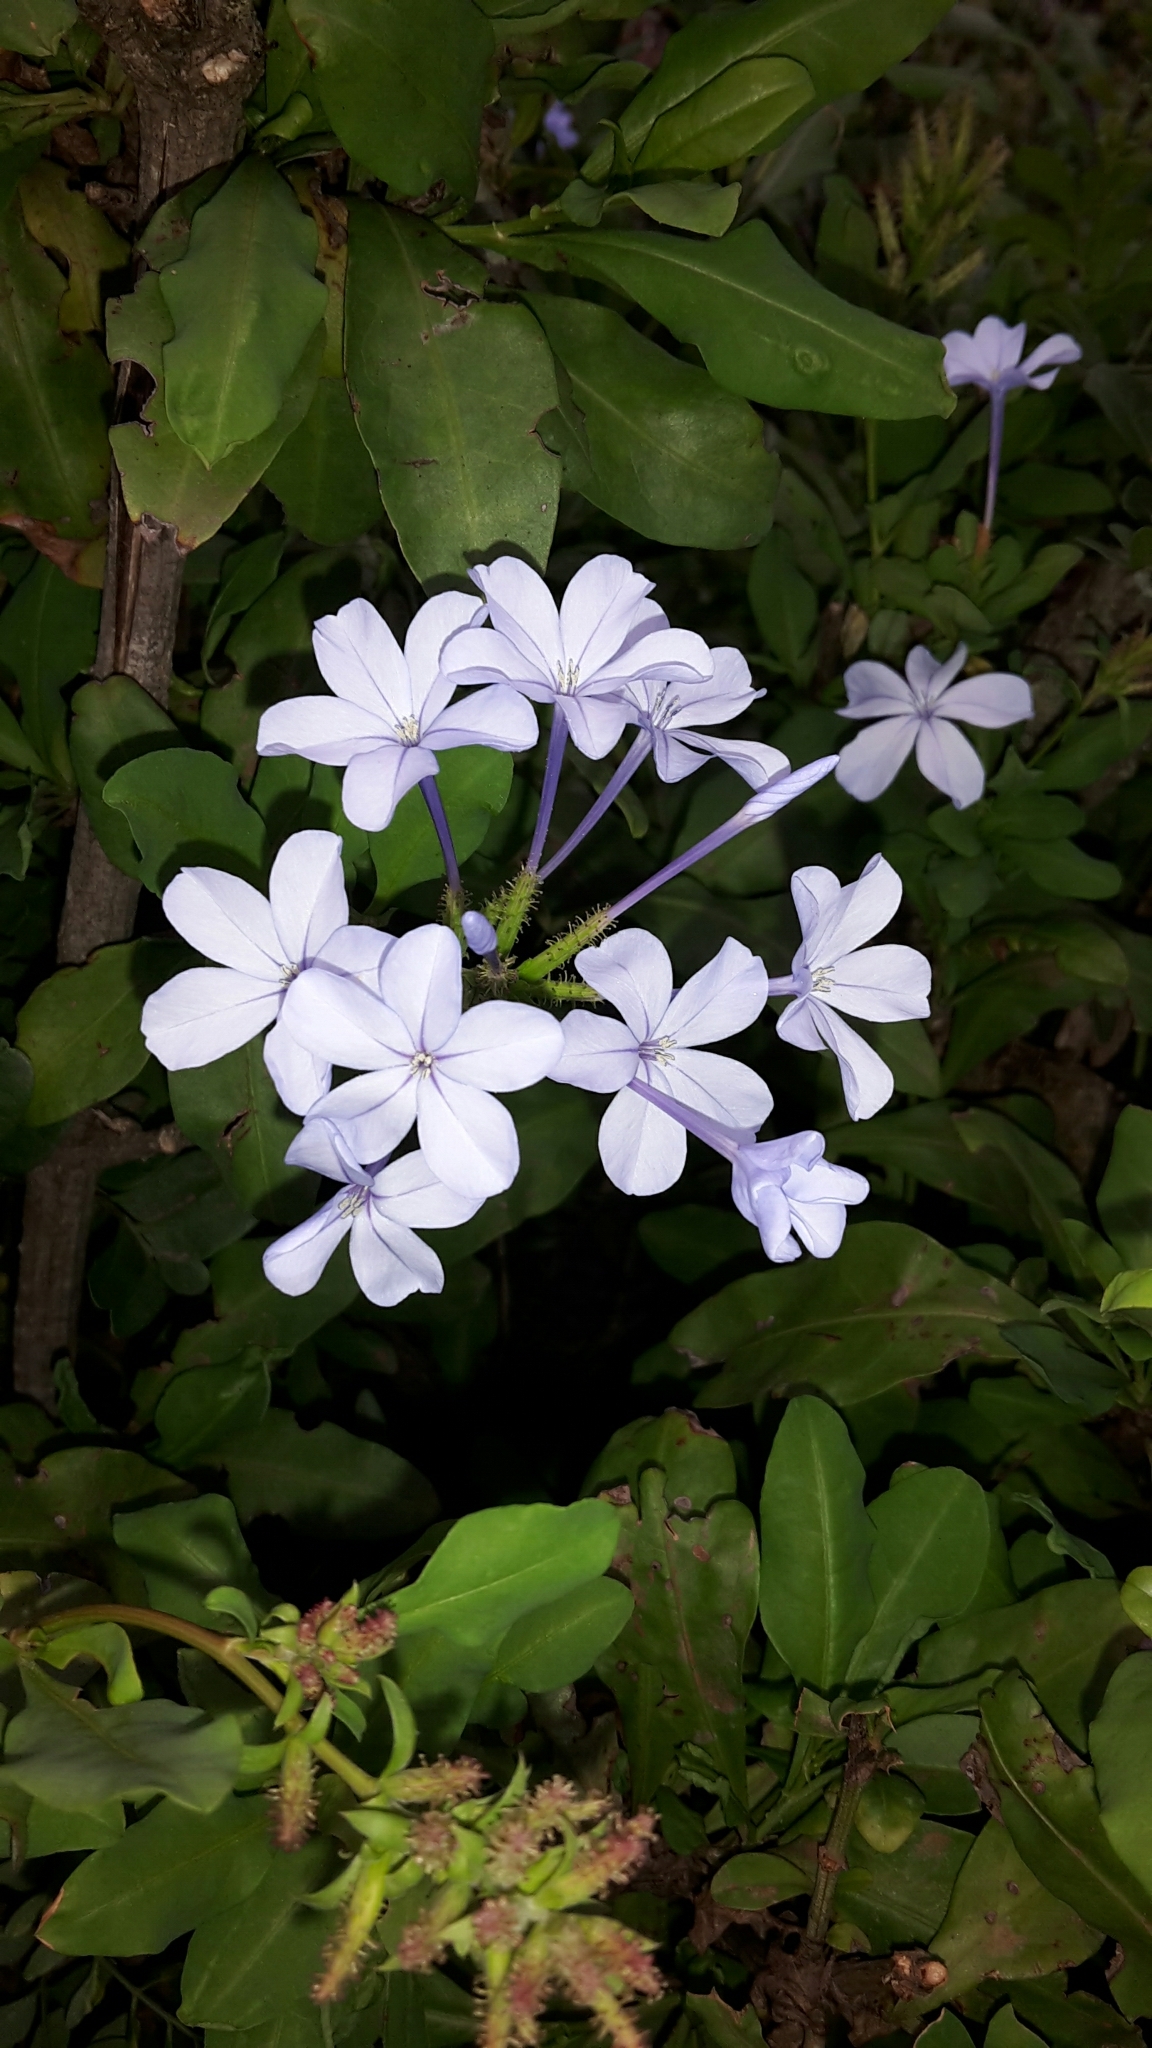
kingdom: Plantae
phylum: Tracheophyta
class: Magnoliopsida
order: Caryophyllales
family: Plumbaginaceae
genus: Plumbago
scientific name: Plumbago auriculata
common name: Cape leadwort
